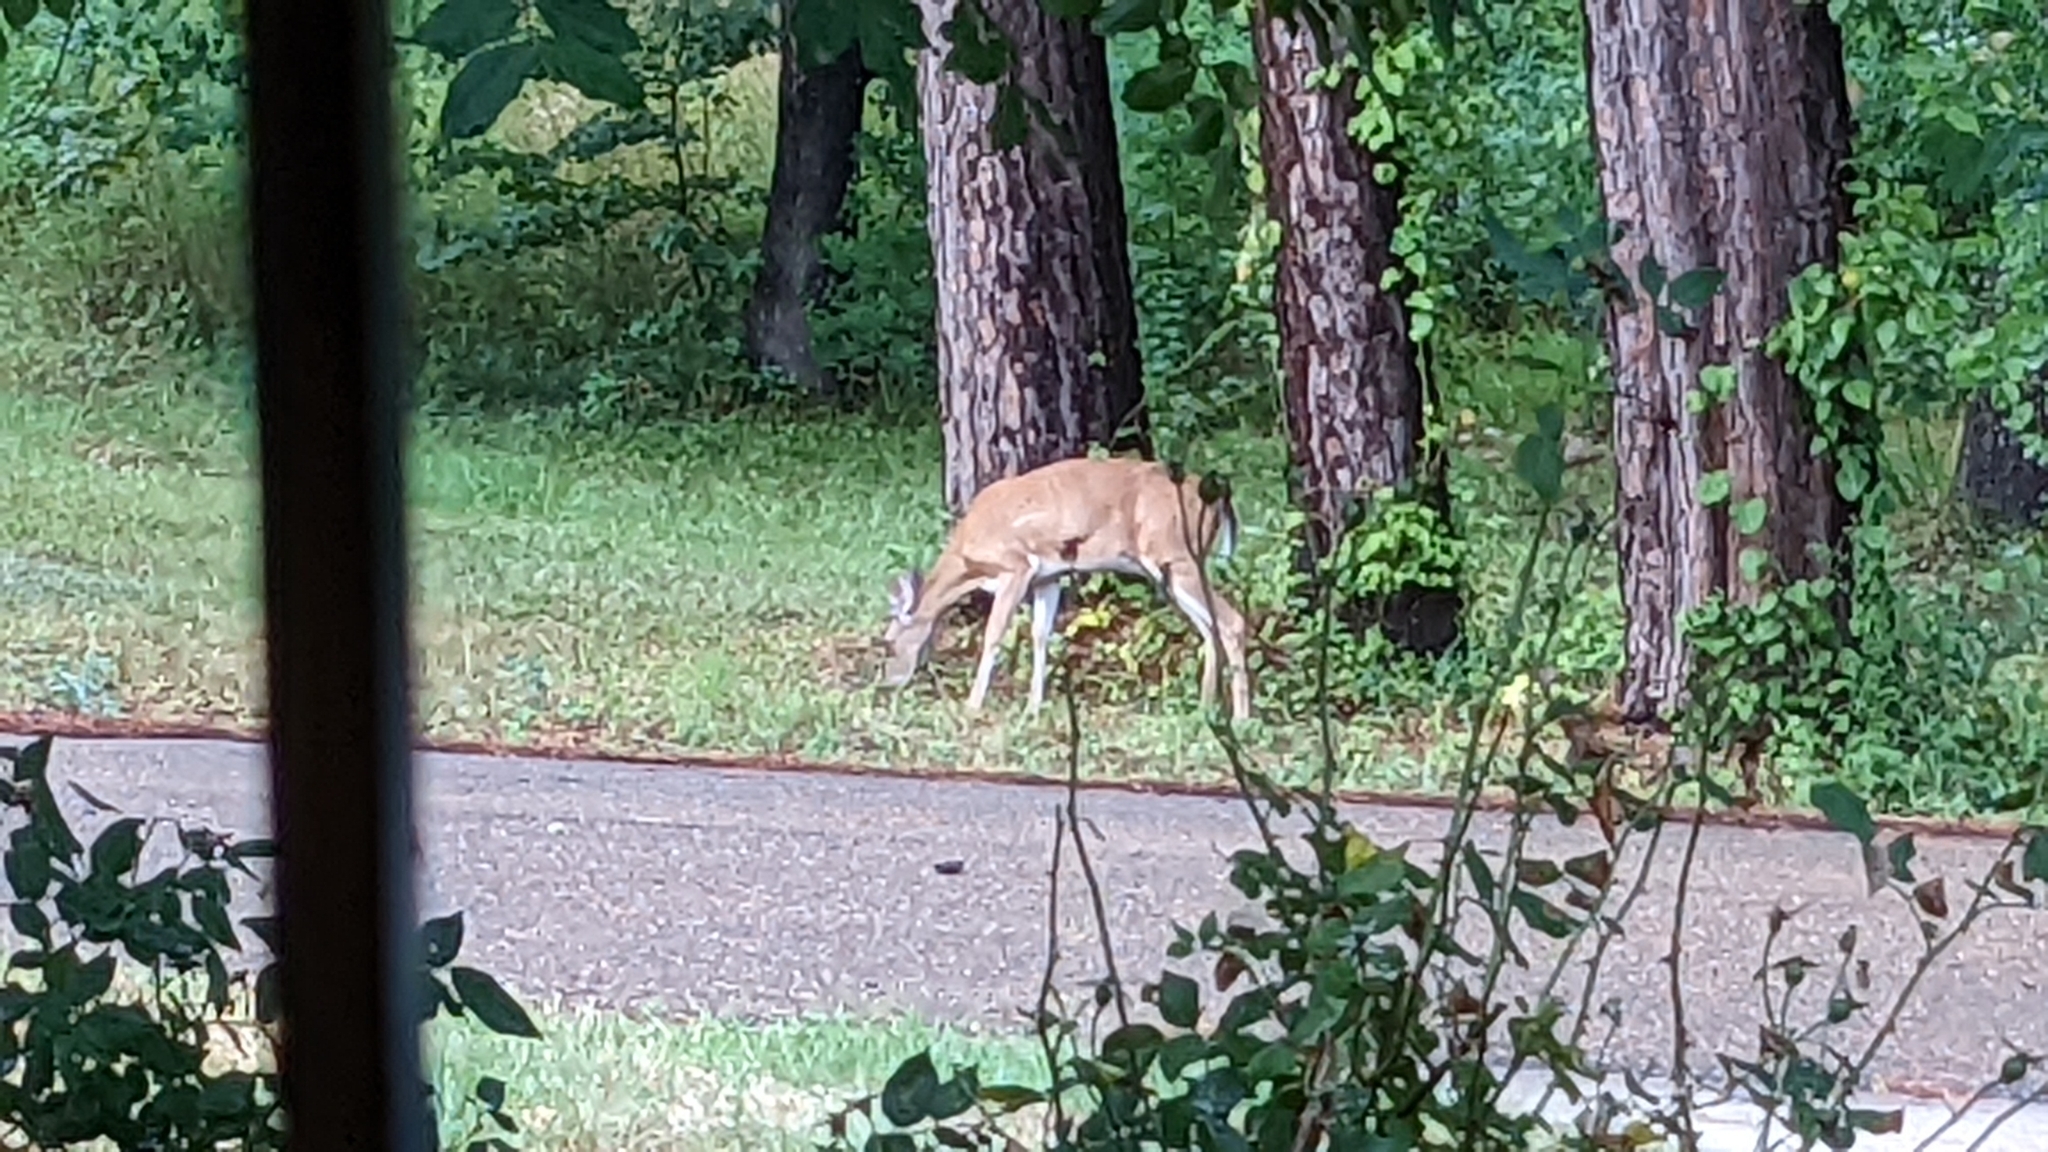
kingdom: Animalia
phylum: Chordata
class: Mammalia
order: Artiodactyla
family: Cervidae
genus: Odocoileus
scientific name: Odocoileus virginianus
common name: White-tailed deer
